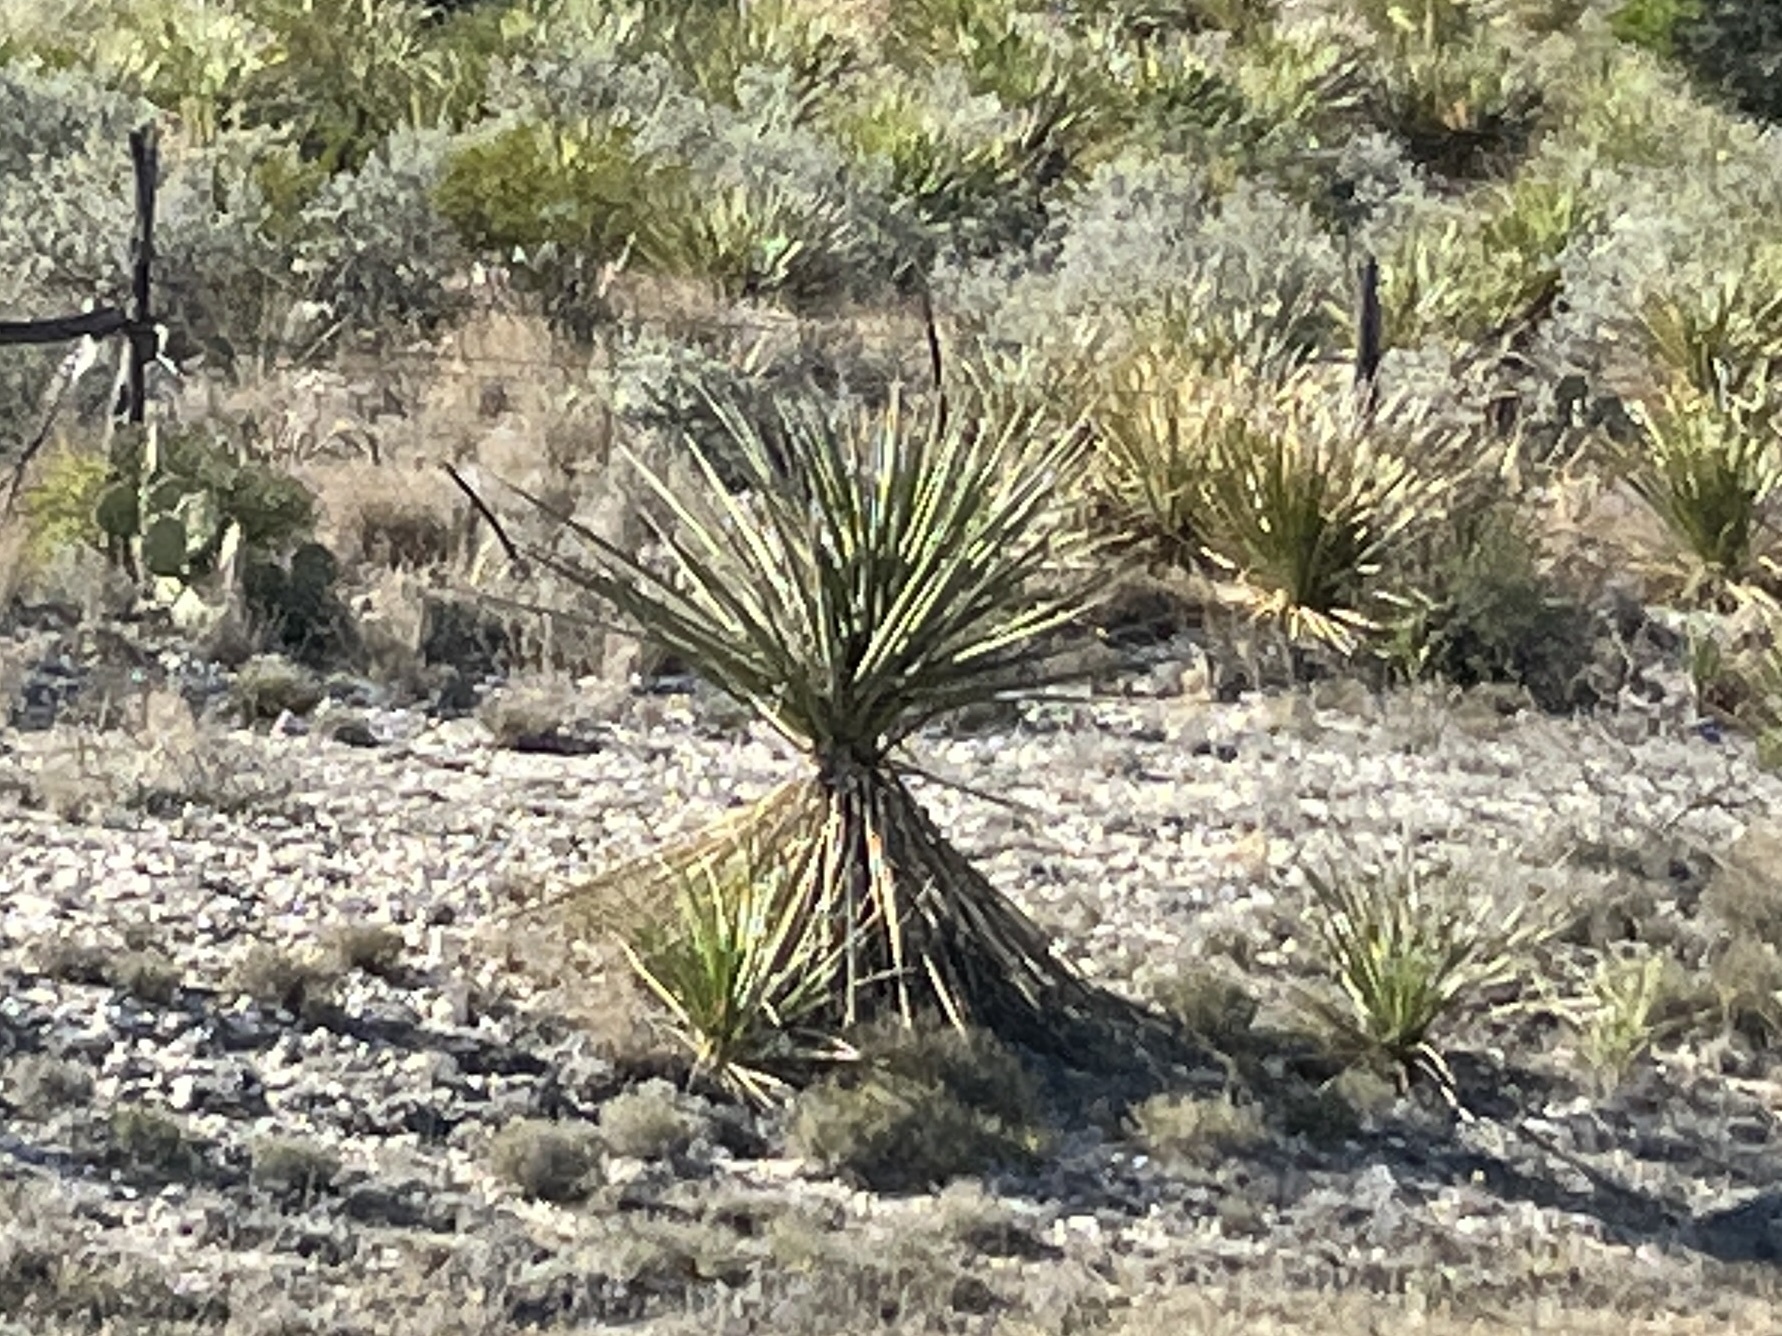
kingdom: Plantae
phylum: Tracheophyta
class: Liliopsida
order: Asparagales
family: Asparagaceae
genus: Yucca
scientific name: Yucca treculiana
